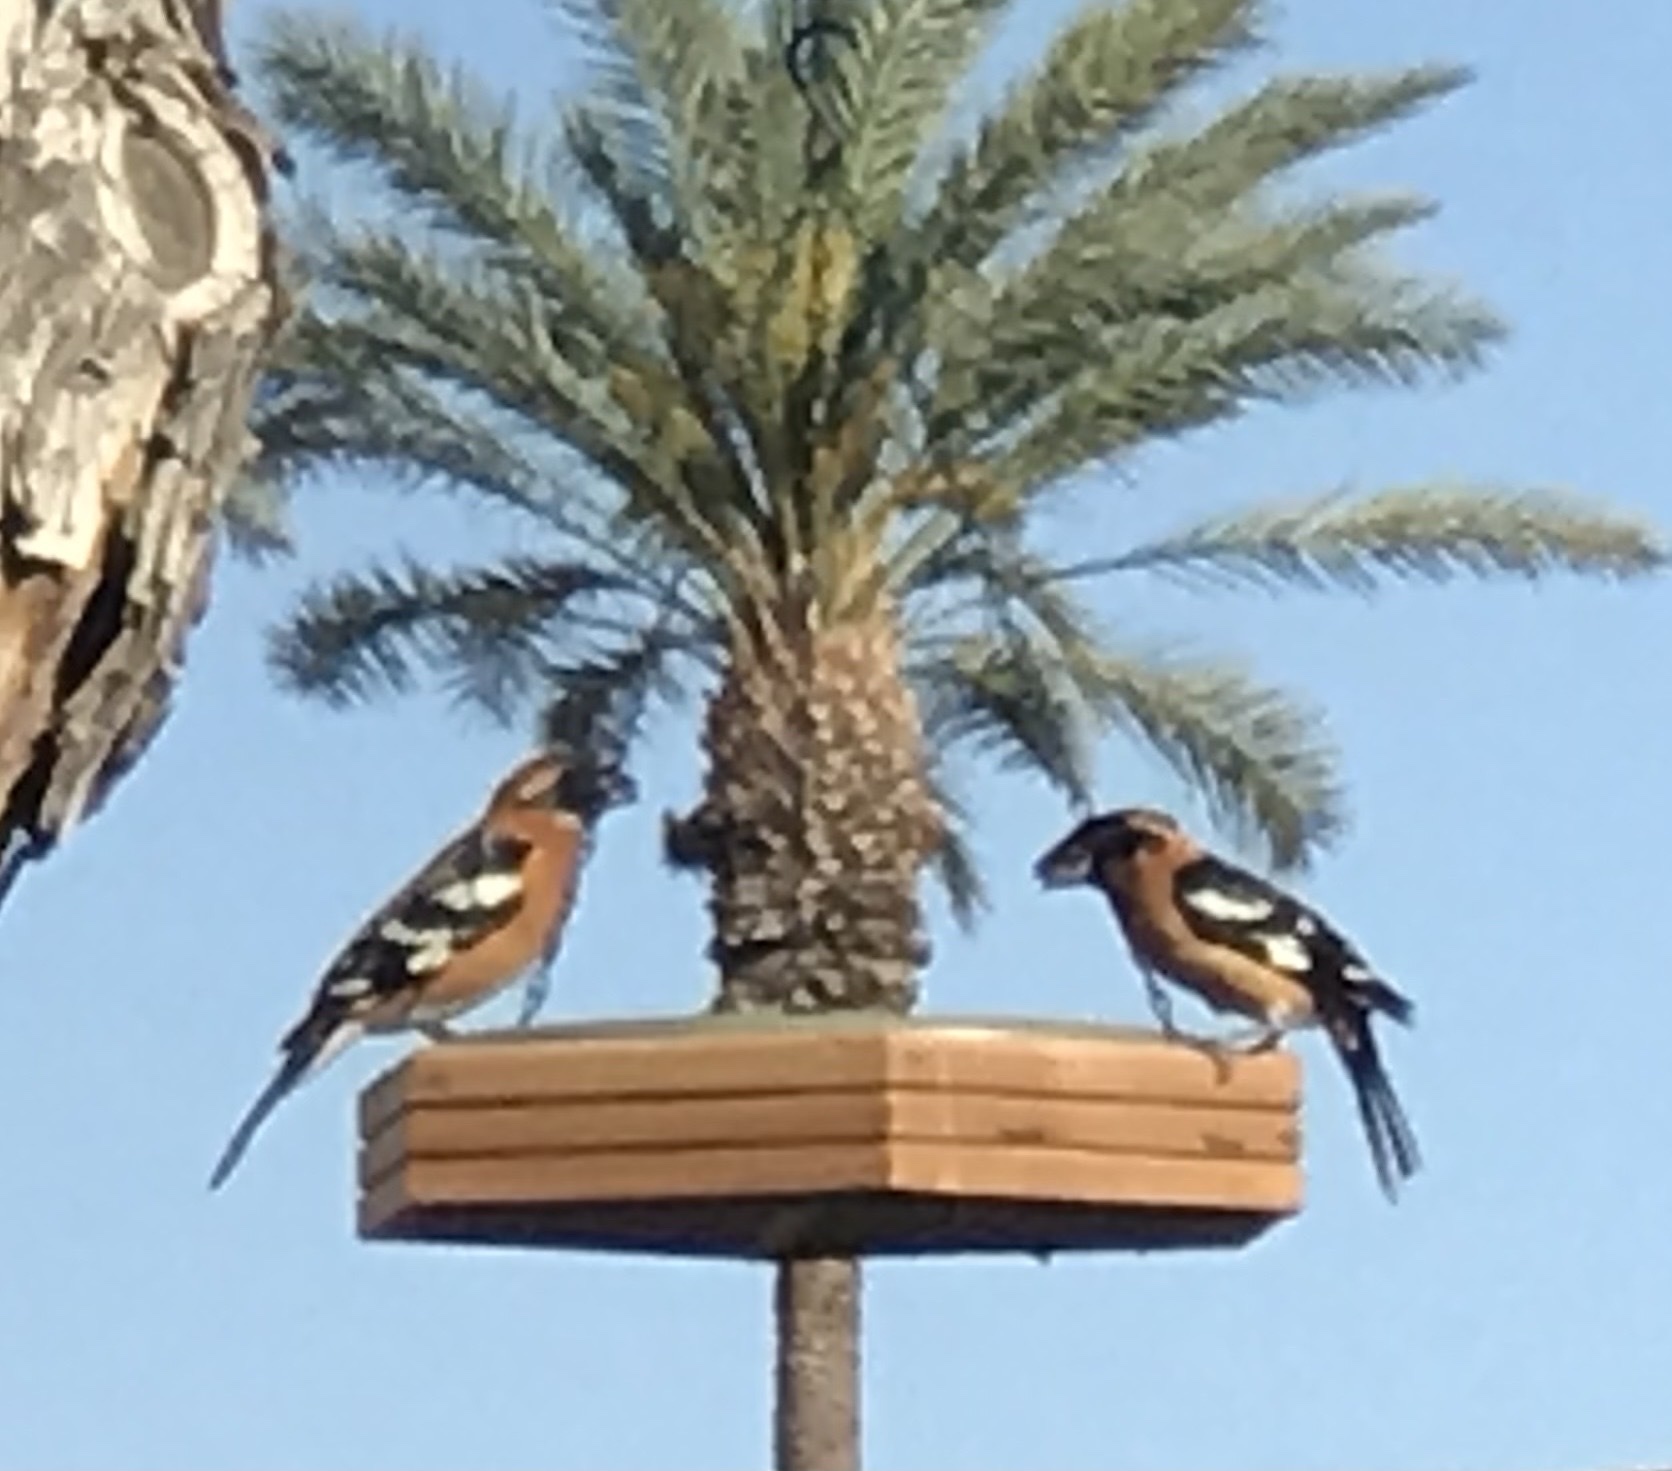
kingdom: Animalia
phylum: Chordata
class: Aves
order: Passeriformes
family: Cardinalidae
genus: Pheucticus
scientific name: Pheucticus melanocephalus
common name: Black-headed grosbeak
